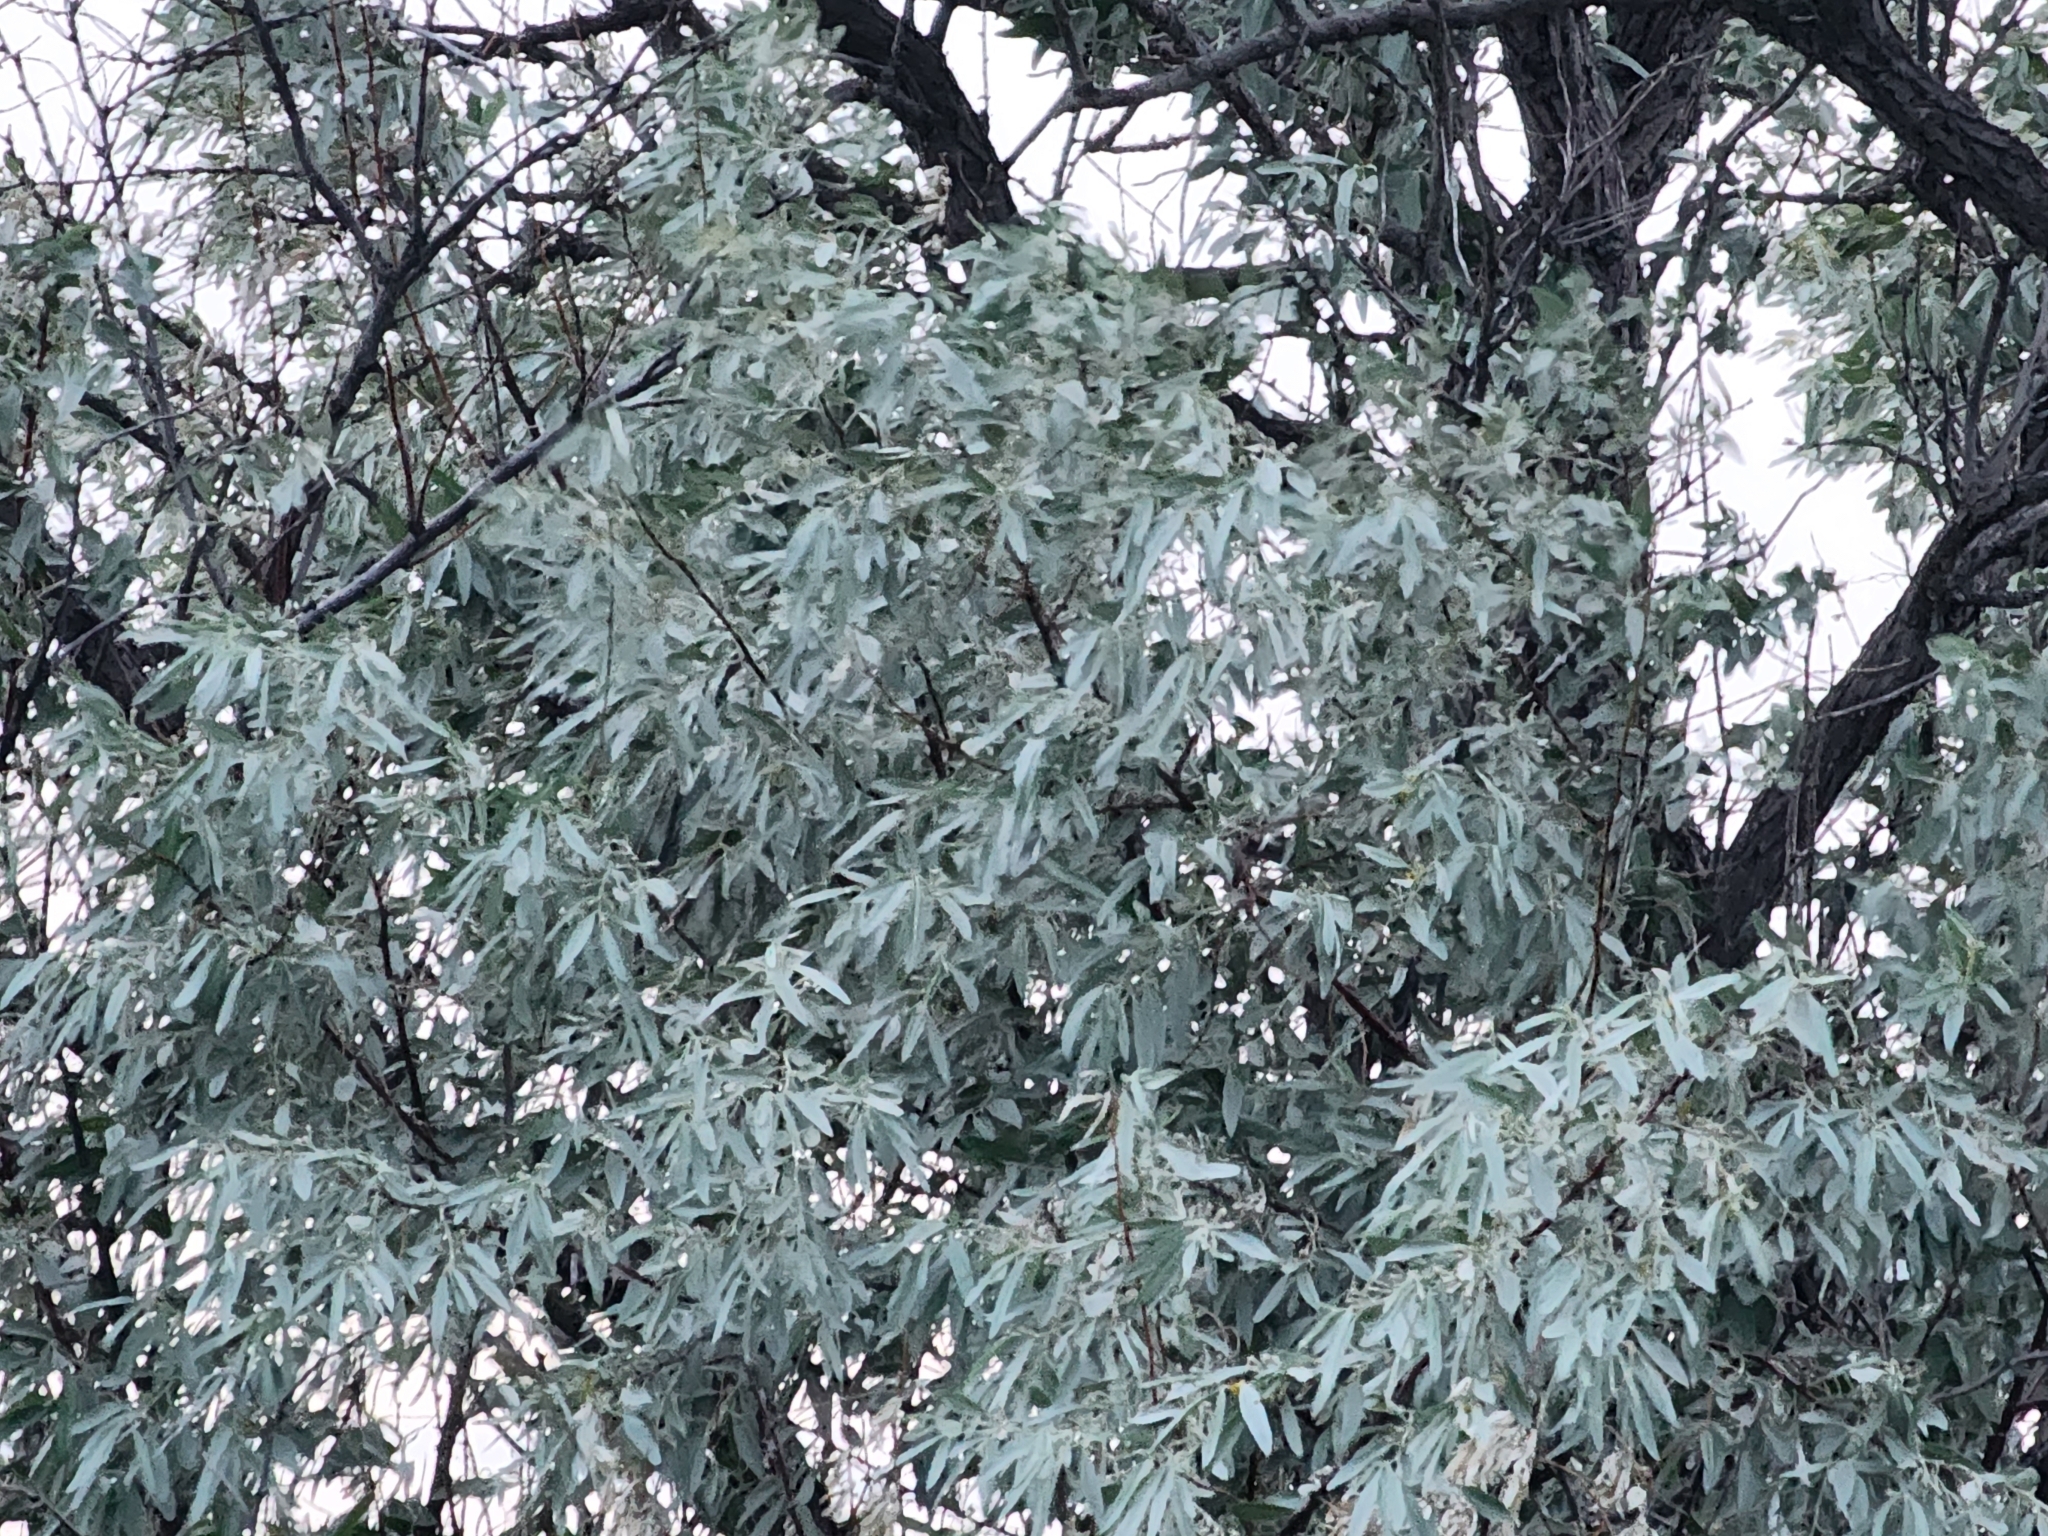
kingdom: Plantae
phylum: Tracheophyta
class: Magnoliopsida
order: Rosales
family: Elaeagnaceae
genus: Elaeagnus
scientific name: Elaeagnus angustifolia
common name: Russian olive
